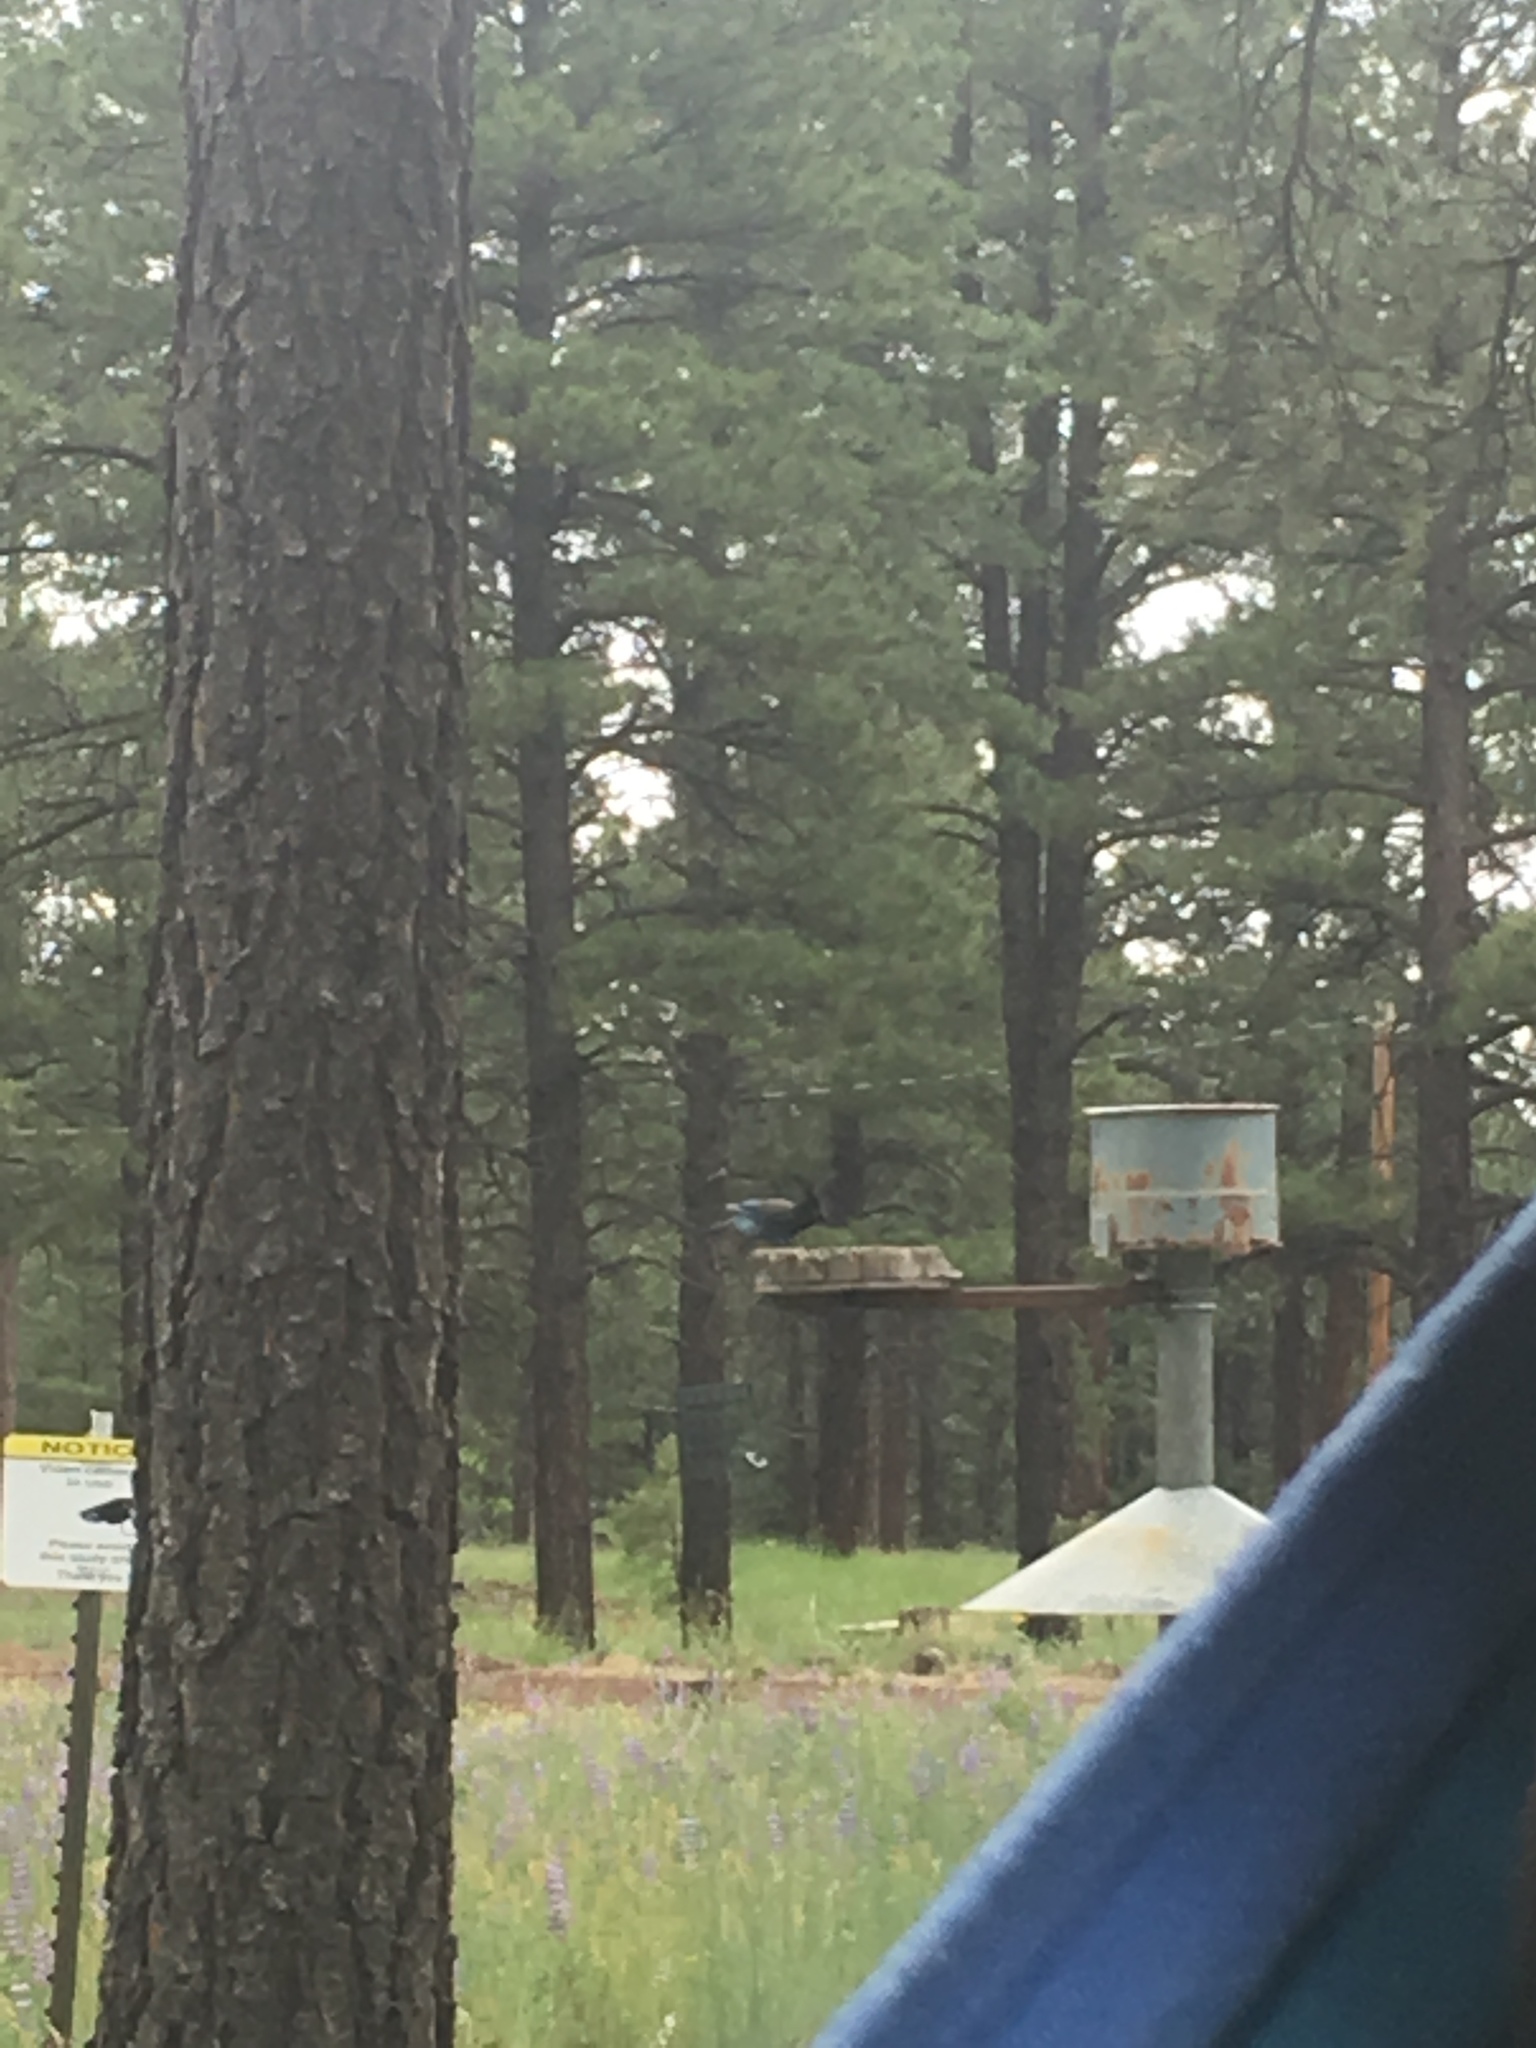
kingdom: Animalia
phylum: Chordata
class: Aves
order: Passeriformes
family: Corvidae
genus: Cyanocitta
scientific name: Cyanocitta stelleri
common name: Steller's jay
